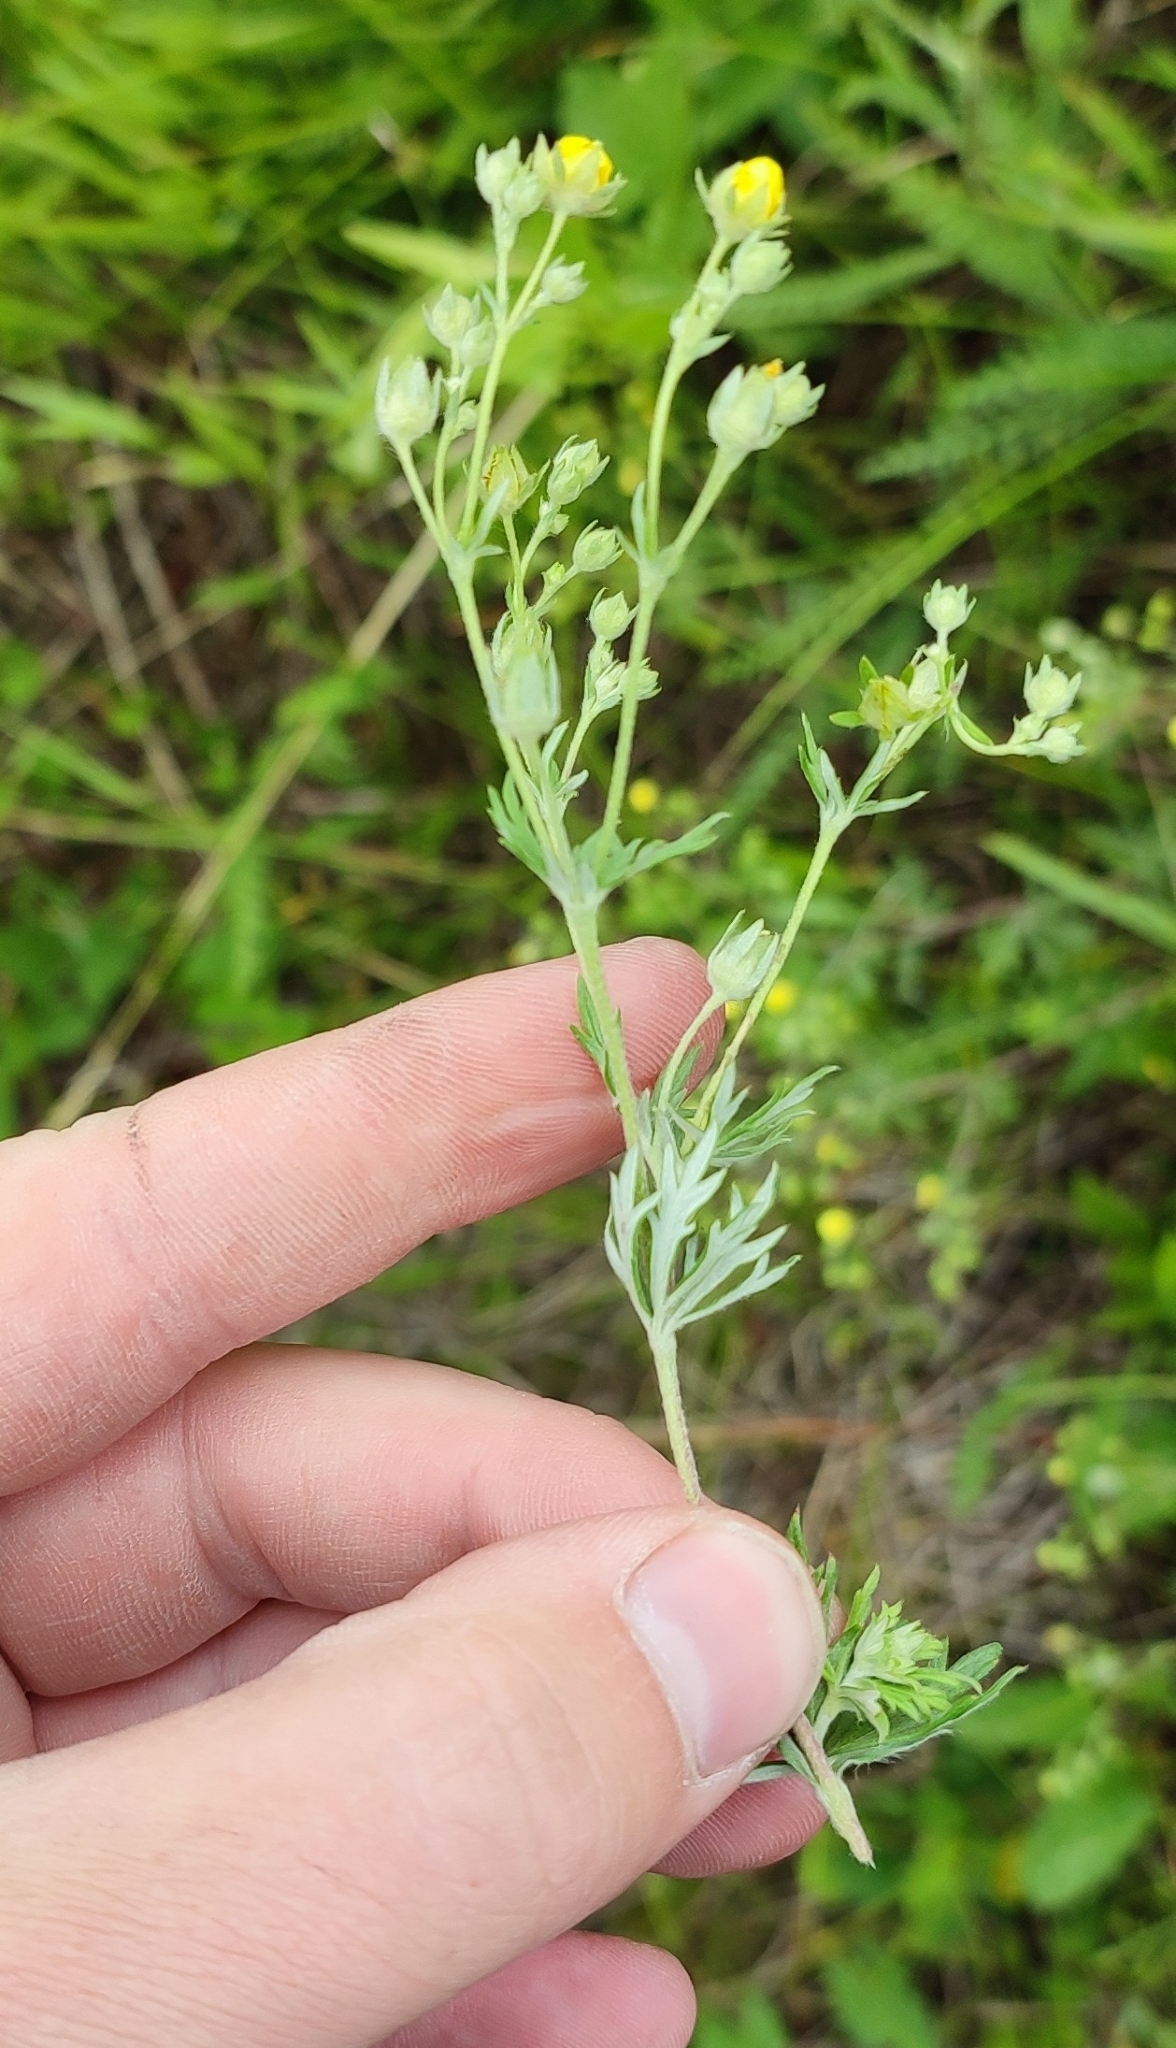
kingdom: Plantae
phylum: Tracheophyta
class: Magnoliopsida
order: Rosales
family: Rosaceae
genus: Potentilla
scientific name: Potentilla argentea
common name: Hoary cinquefoil
